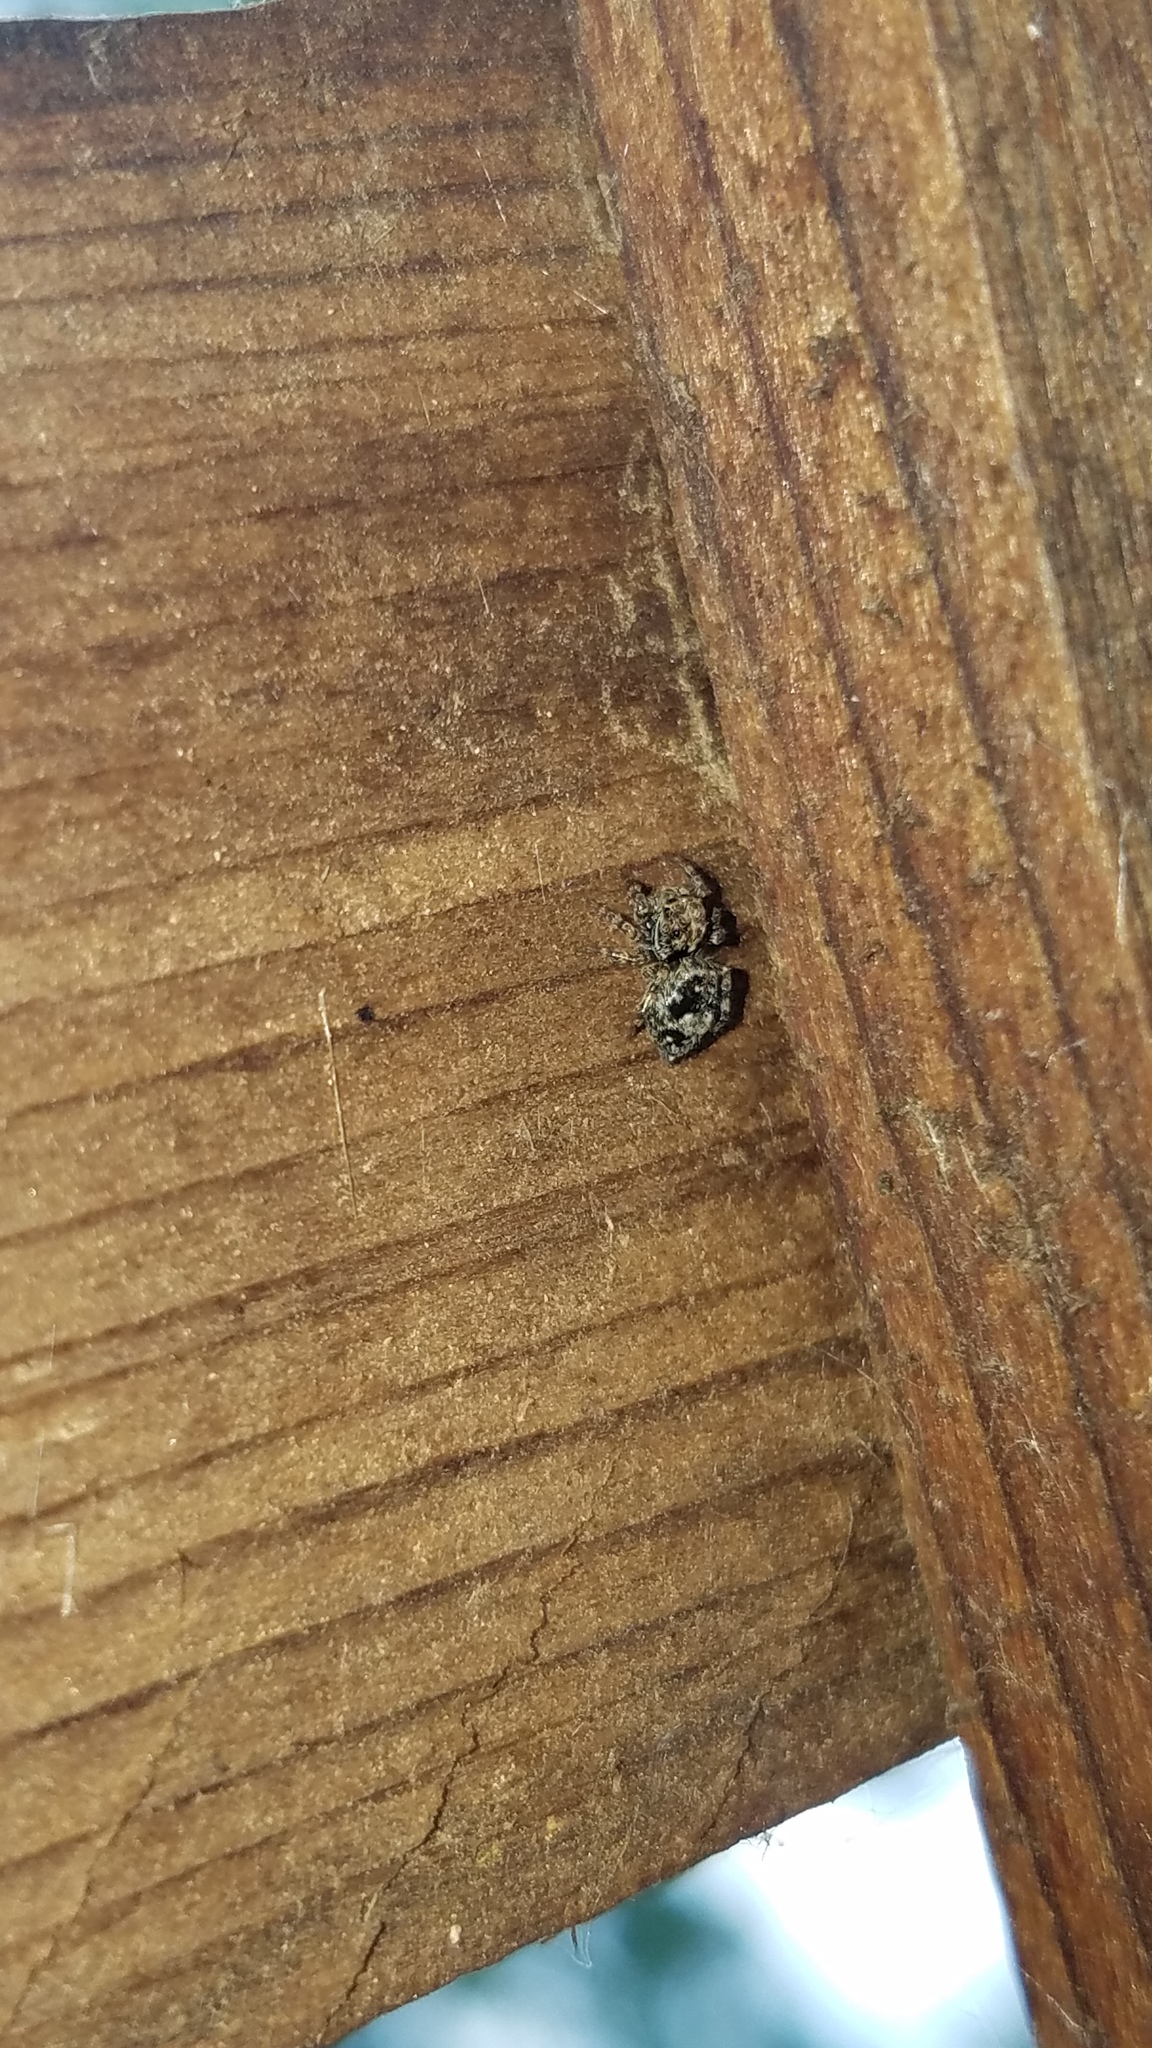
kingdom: Animalia
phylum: Arthropoda
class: Arachnida
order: Araneae
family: Salticidae
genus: Attulus
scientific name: Attulus fasciger
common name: Asiatic wall jumping spider
